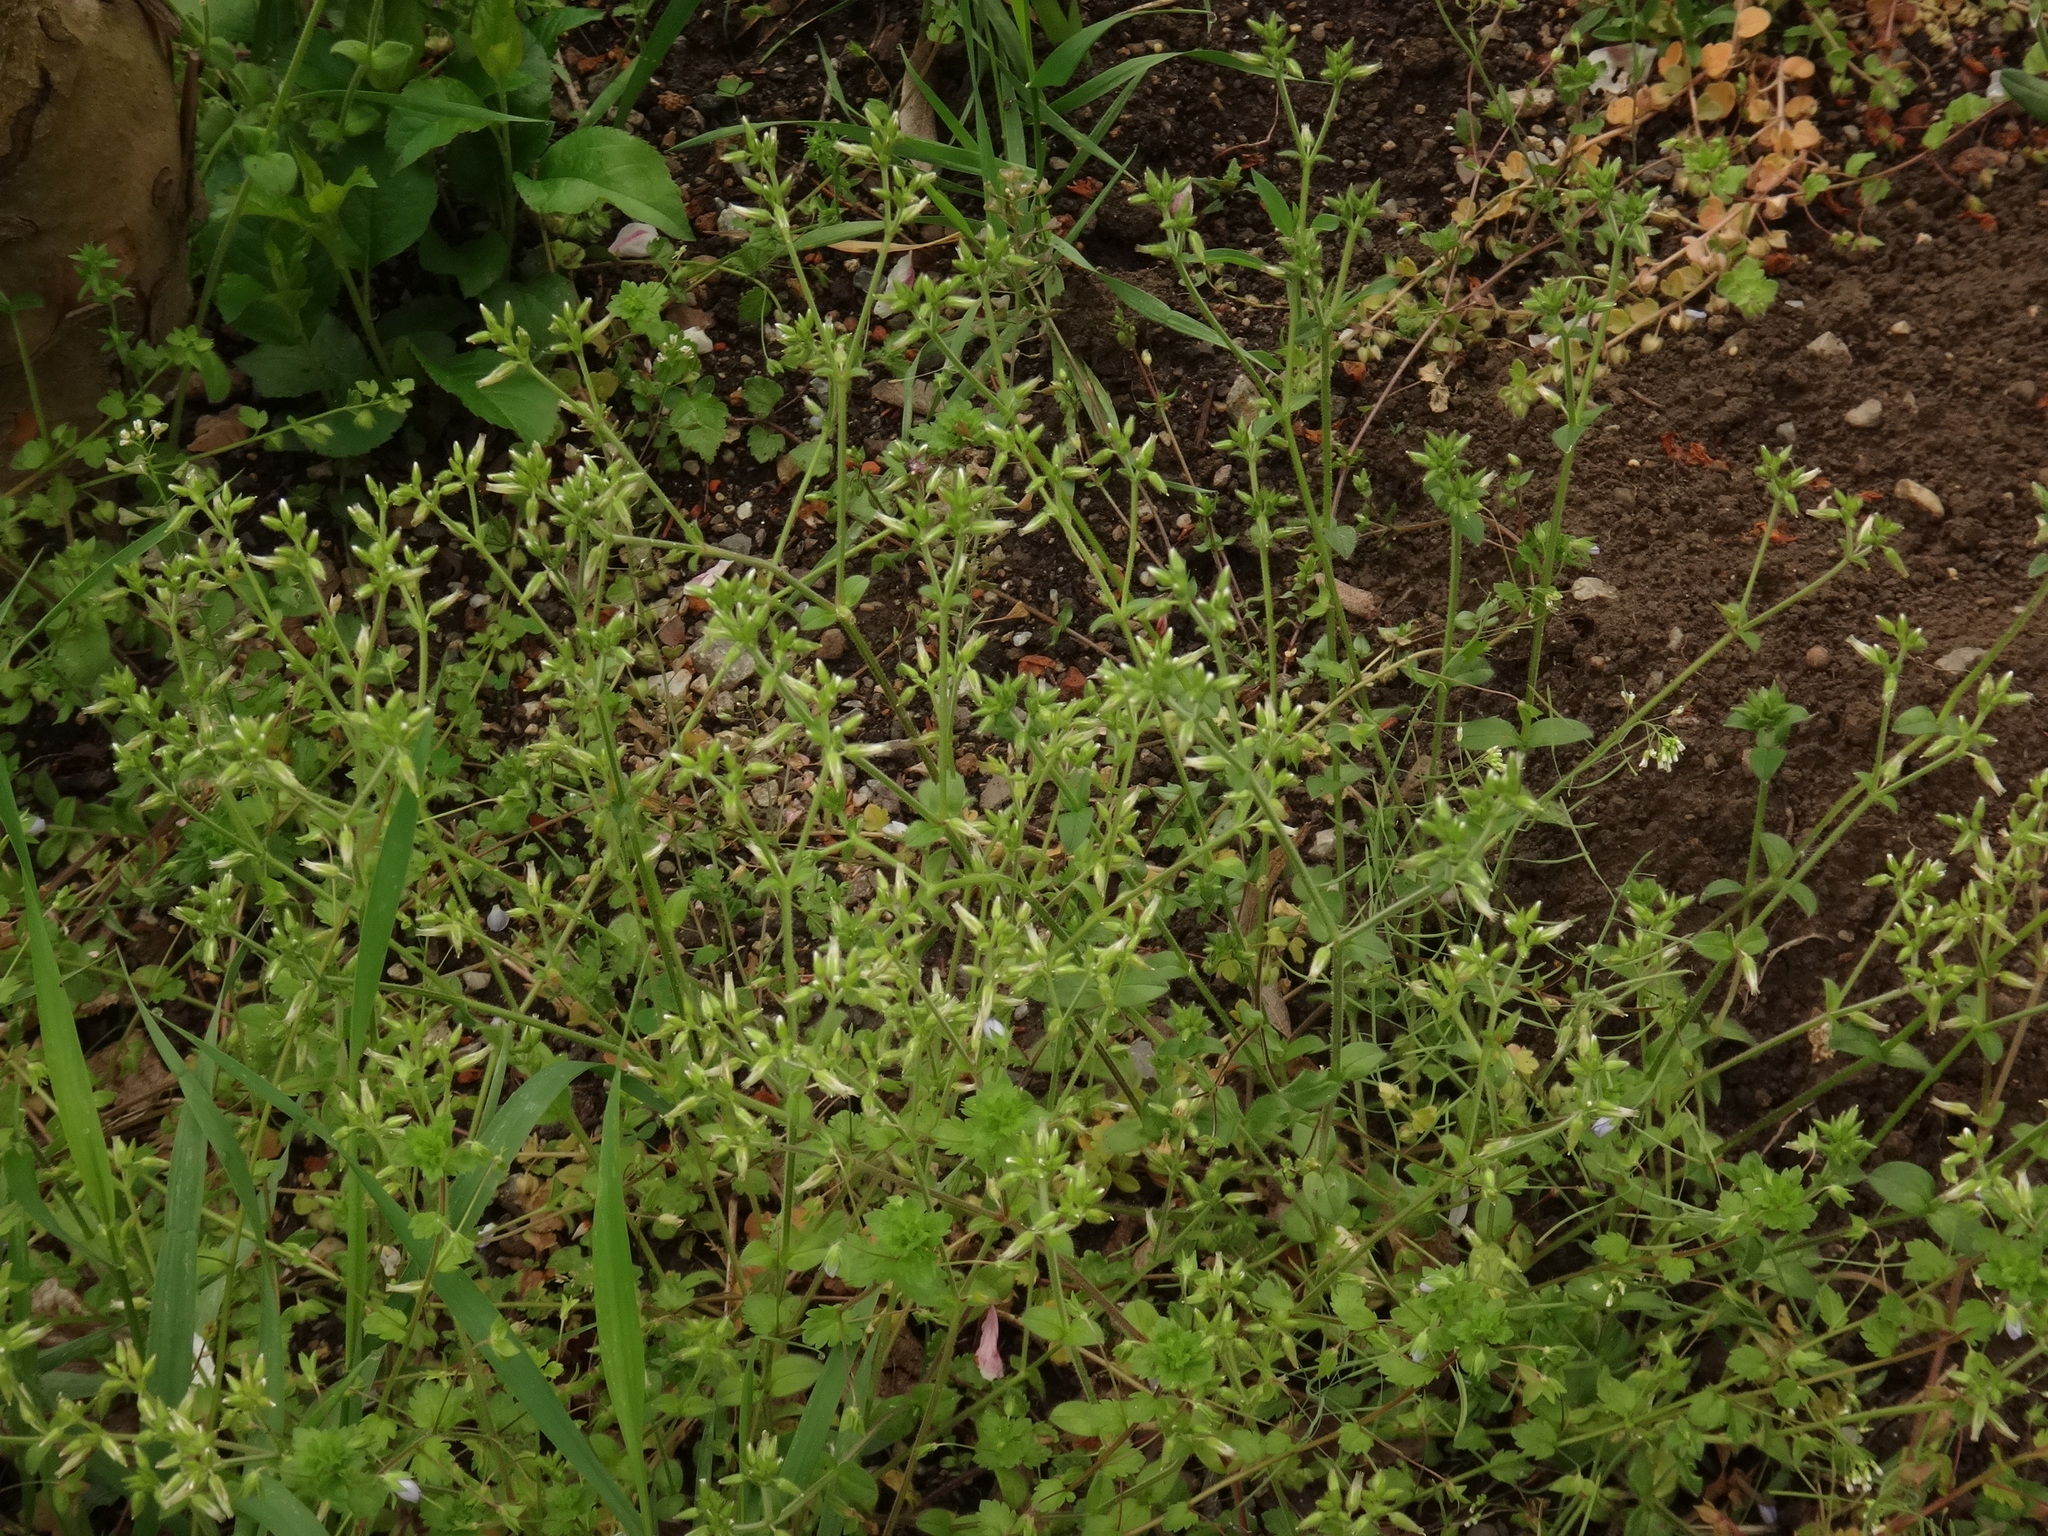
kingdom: Plantae
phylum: Tracheophyta
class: Magnoliopsida
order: Caryophyllales
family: Caryophyllaceae
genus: Cerastium
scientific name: Cerastium glomeratum
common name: Sticky chickweed
